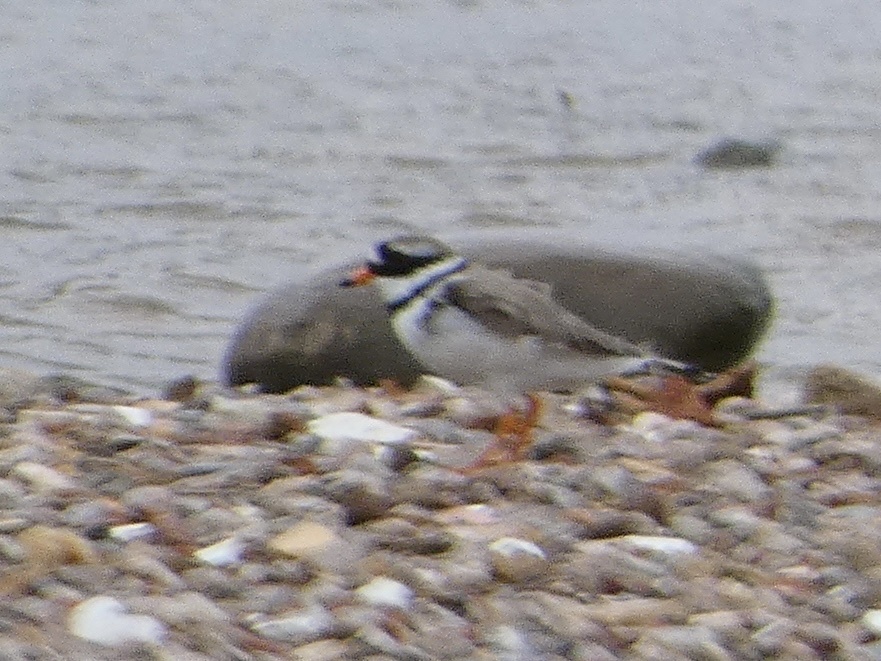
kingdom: Animalia
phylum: Chordata
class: Aves
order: Charadriiformes
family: Charadriidae
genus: Charadrius
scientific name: Charadrius hiaticula
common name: Common ringed plover
